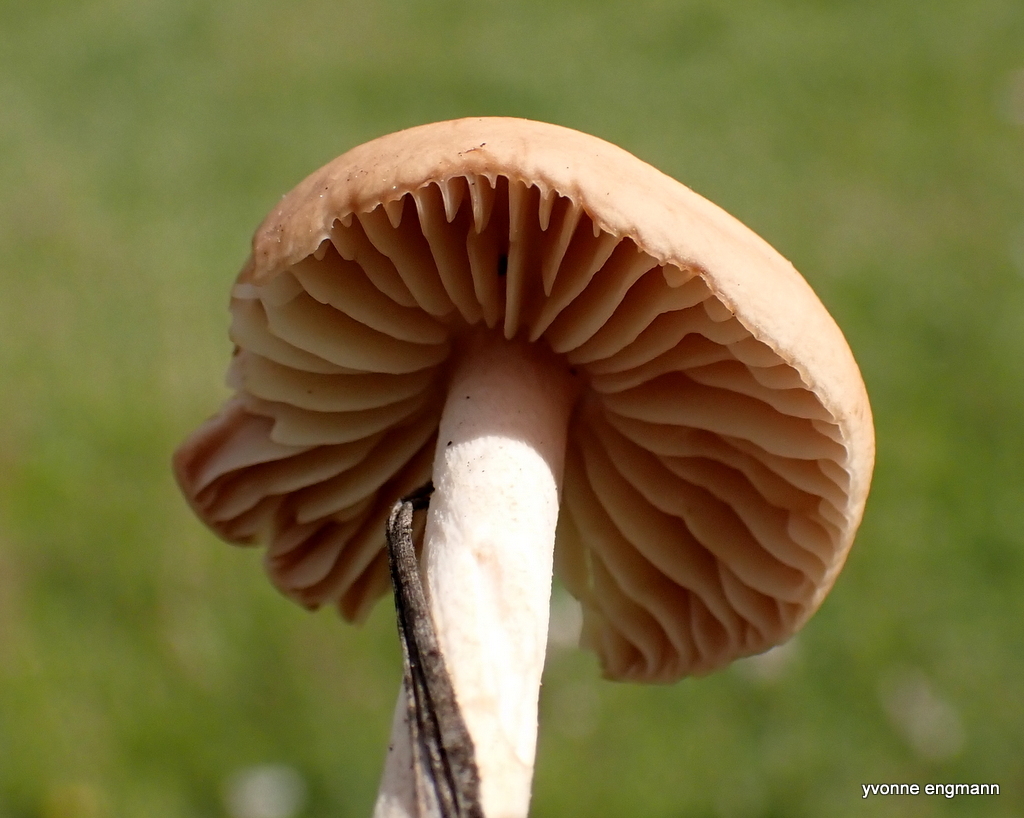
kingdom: Fungi
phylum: Basidiomycota
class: Agaricomycetes
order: Agaricales
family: Marasmiaceae
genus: Marasmius
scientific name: Marasmius oreades
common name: Fairy ring champignon
